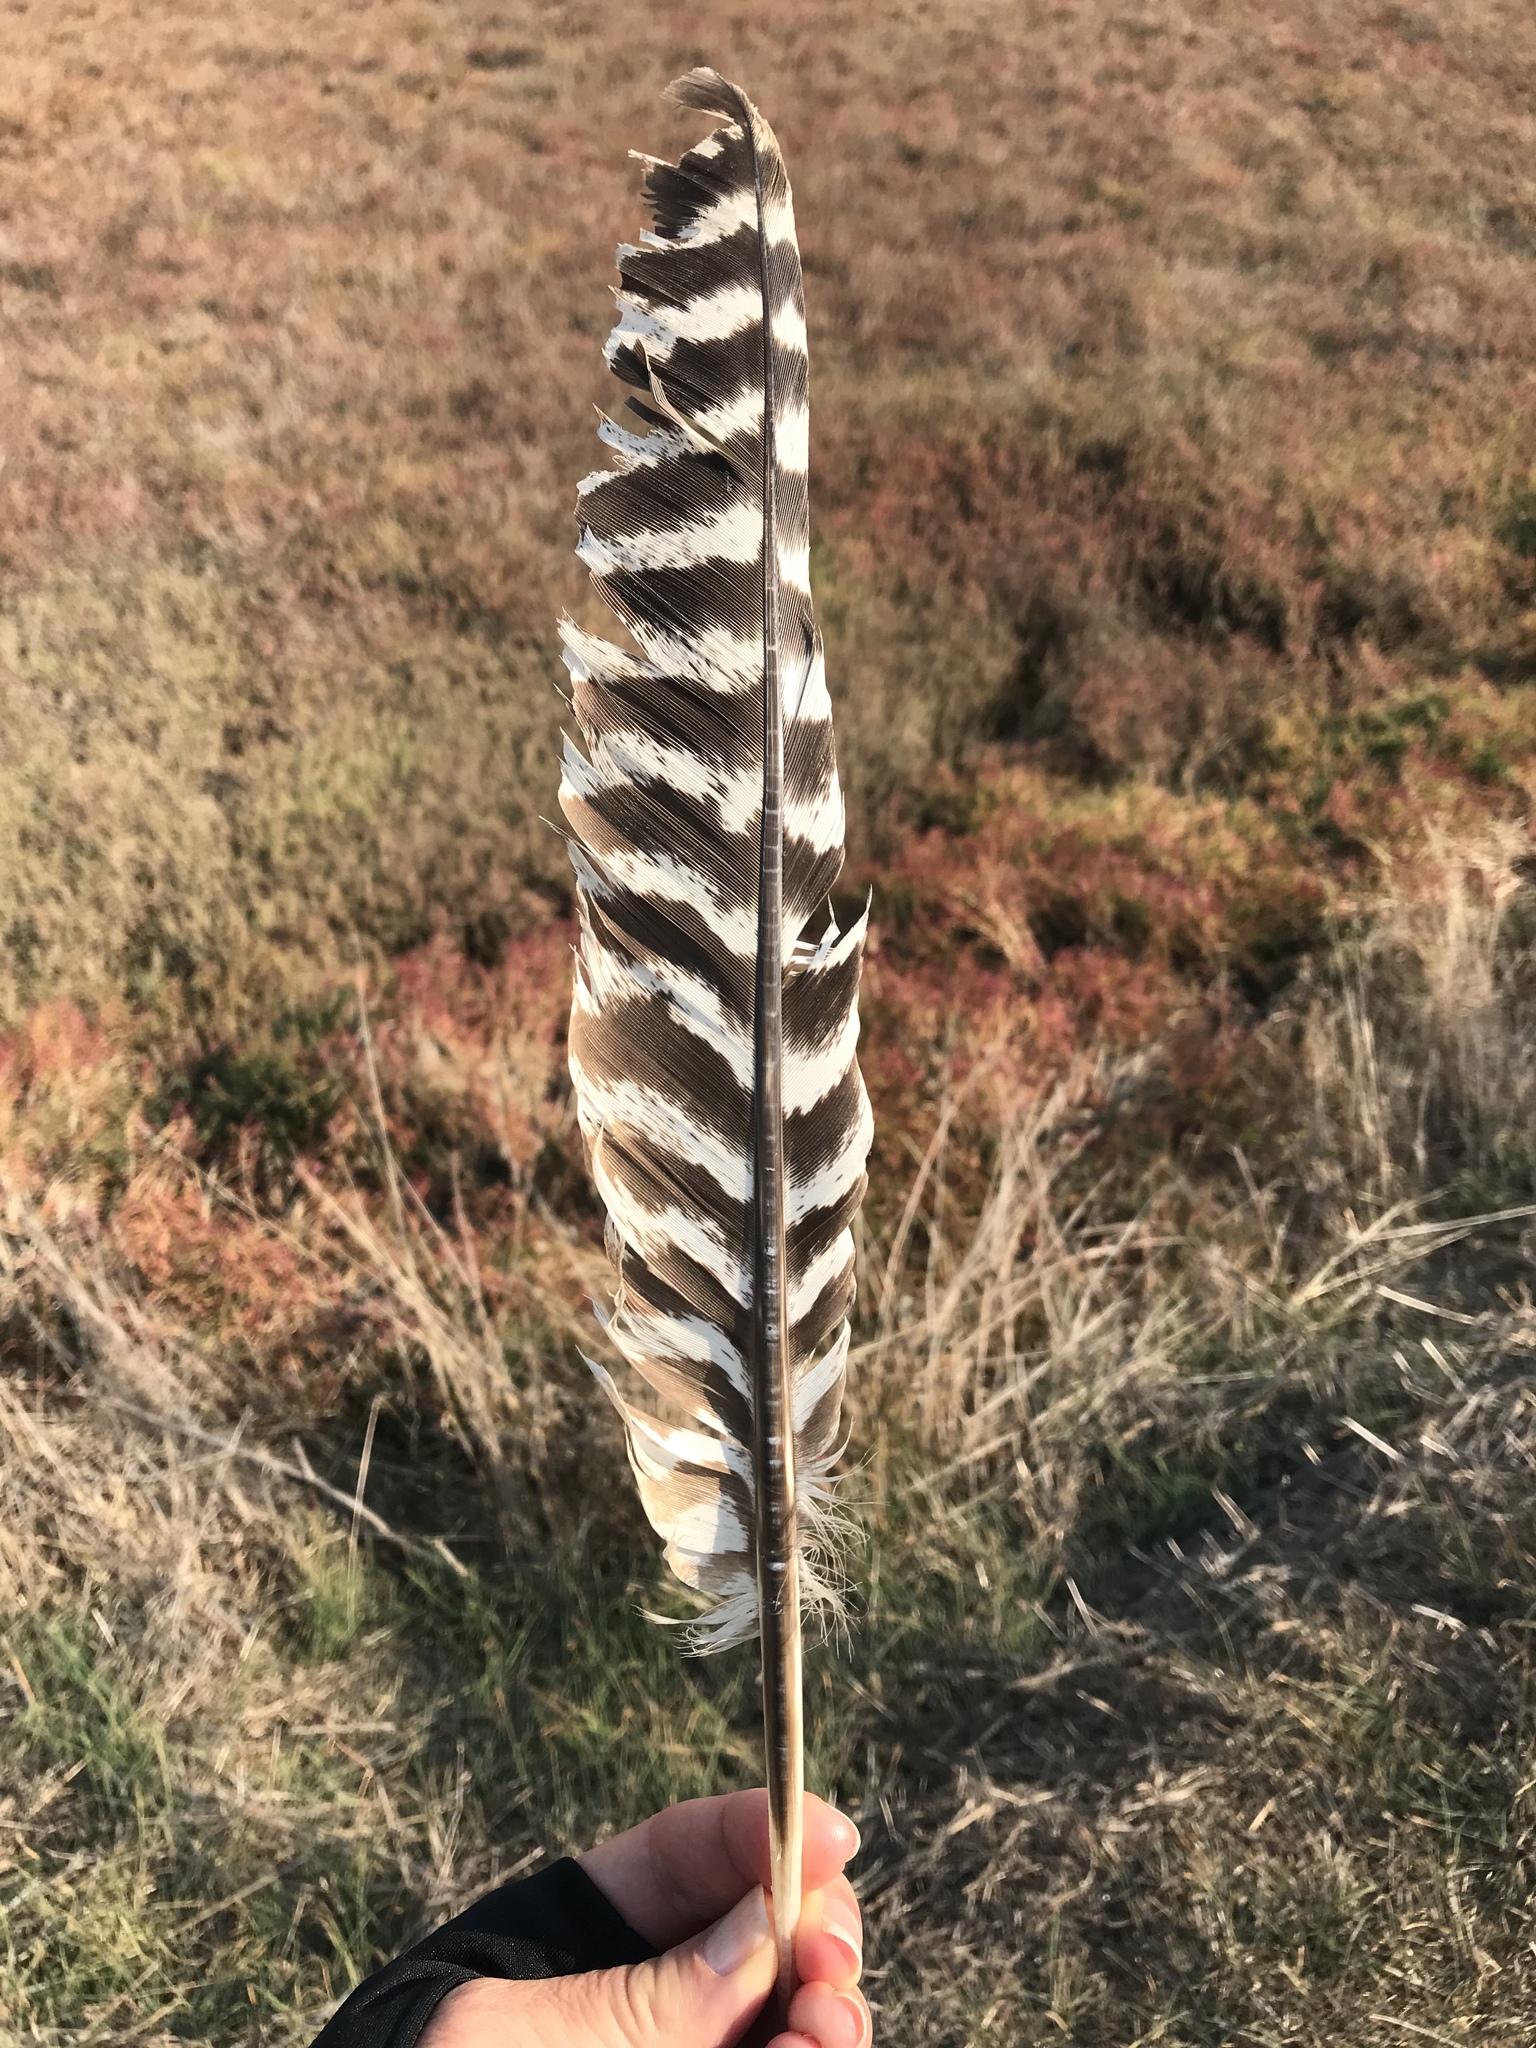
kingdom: Animalia
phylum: Chordata
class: Aves
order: Galliformes
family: Phasianidae
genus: Meleagris
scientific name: Meleagris gallopavo
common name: Wild turkey
